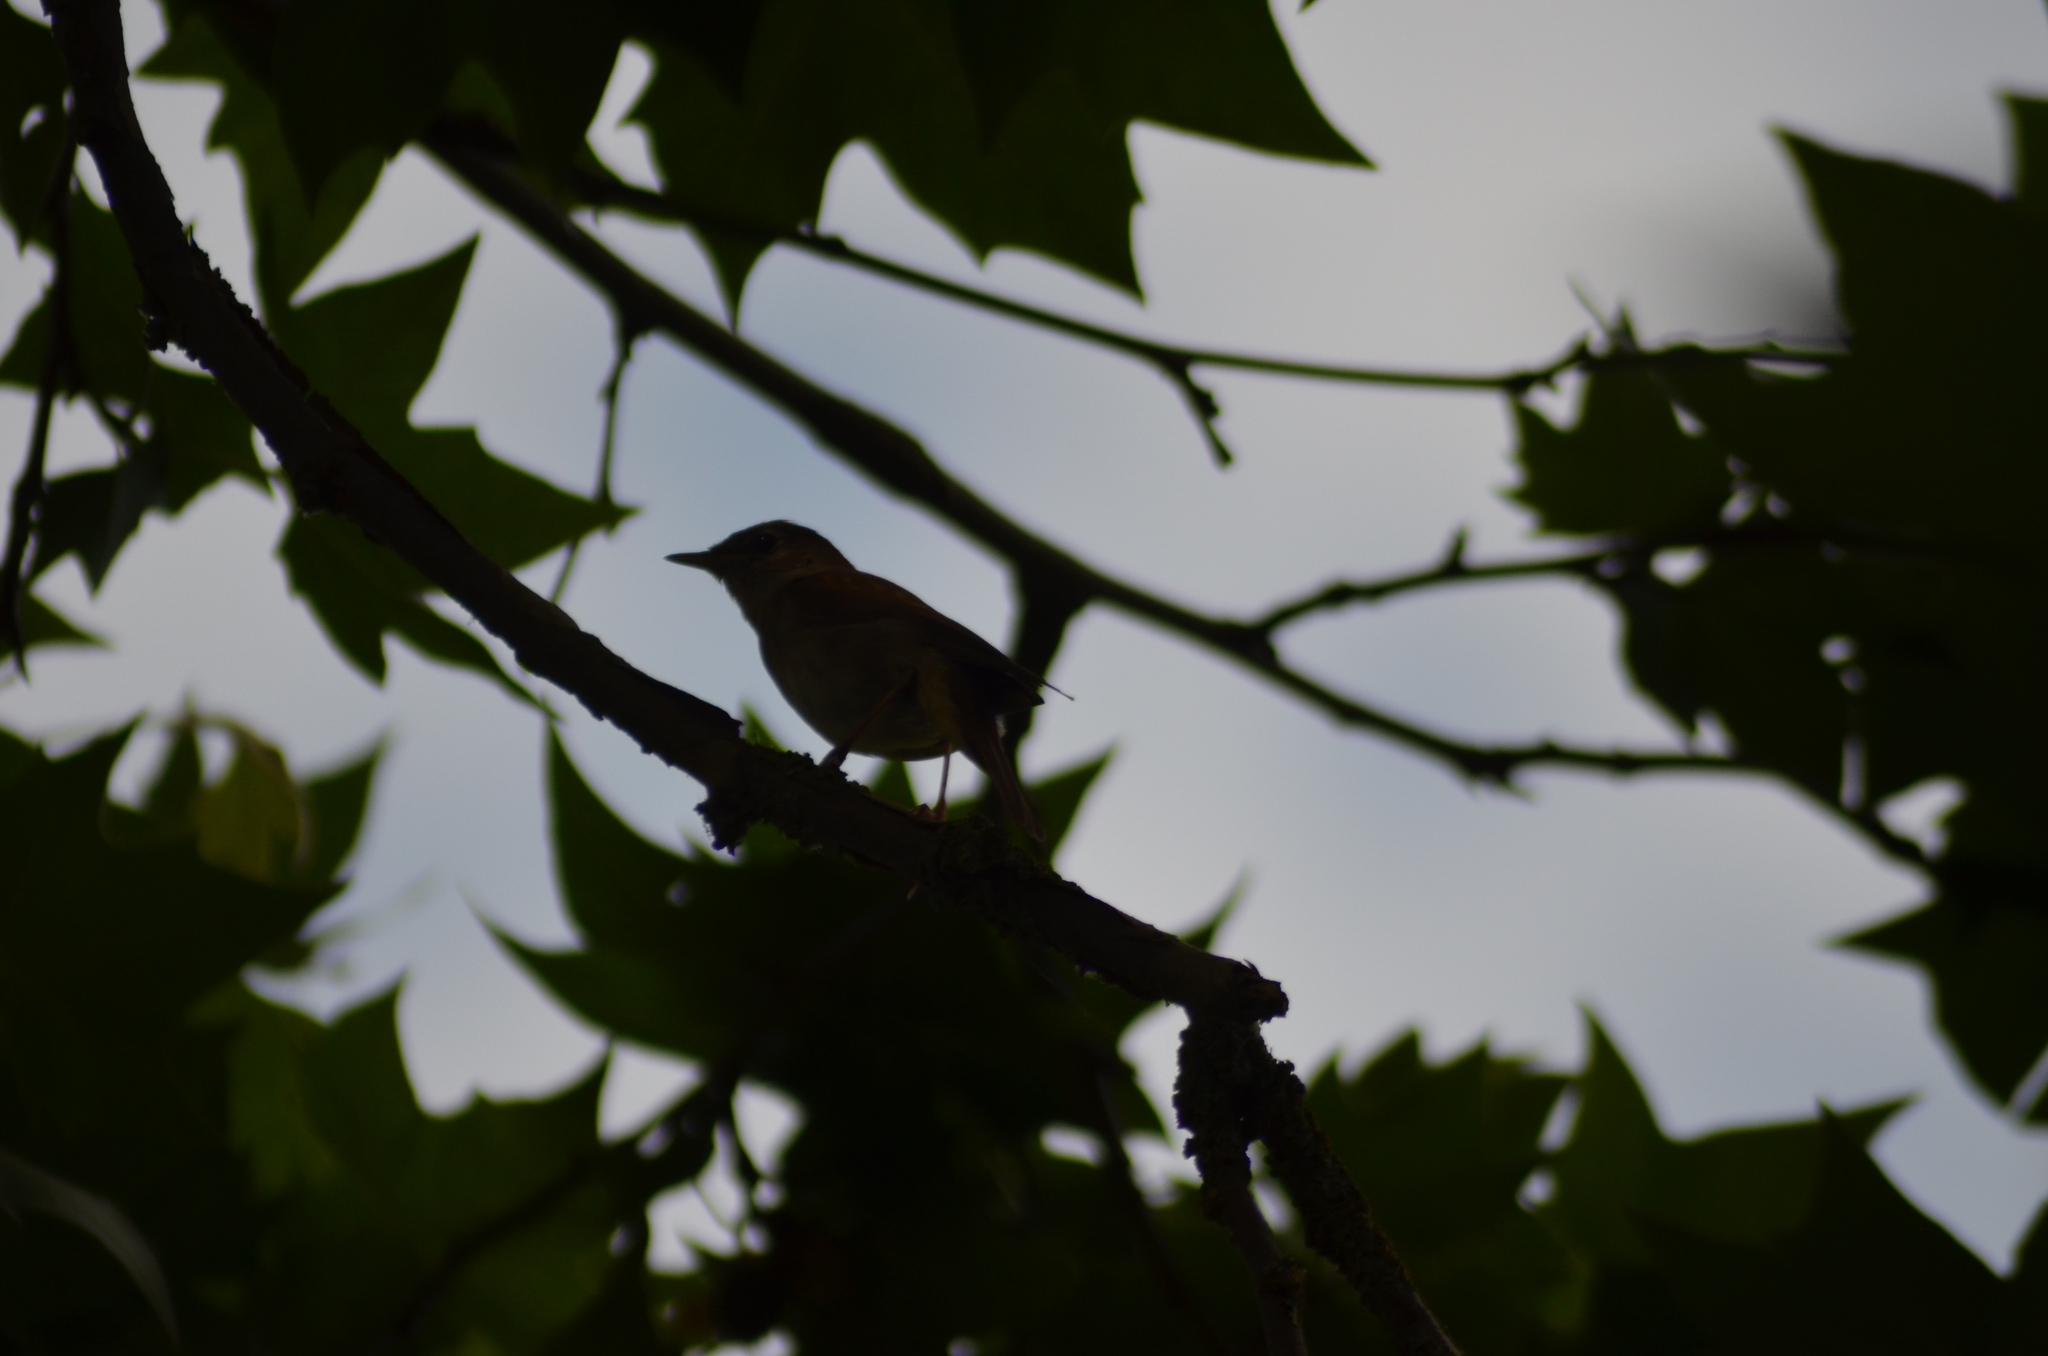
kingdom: Animalia
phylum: Chordata
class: Aves
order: Passeriformes
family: Muscicapidae
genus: Luscinia
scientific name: Luscinia megarhynchos
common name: Common nightingale
